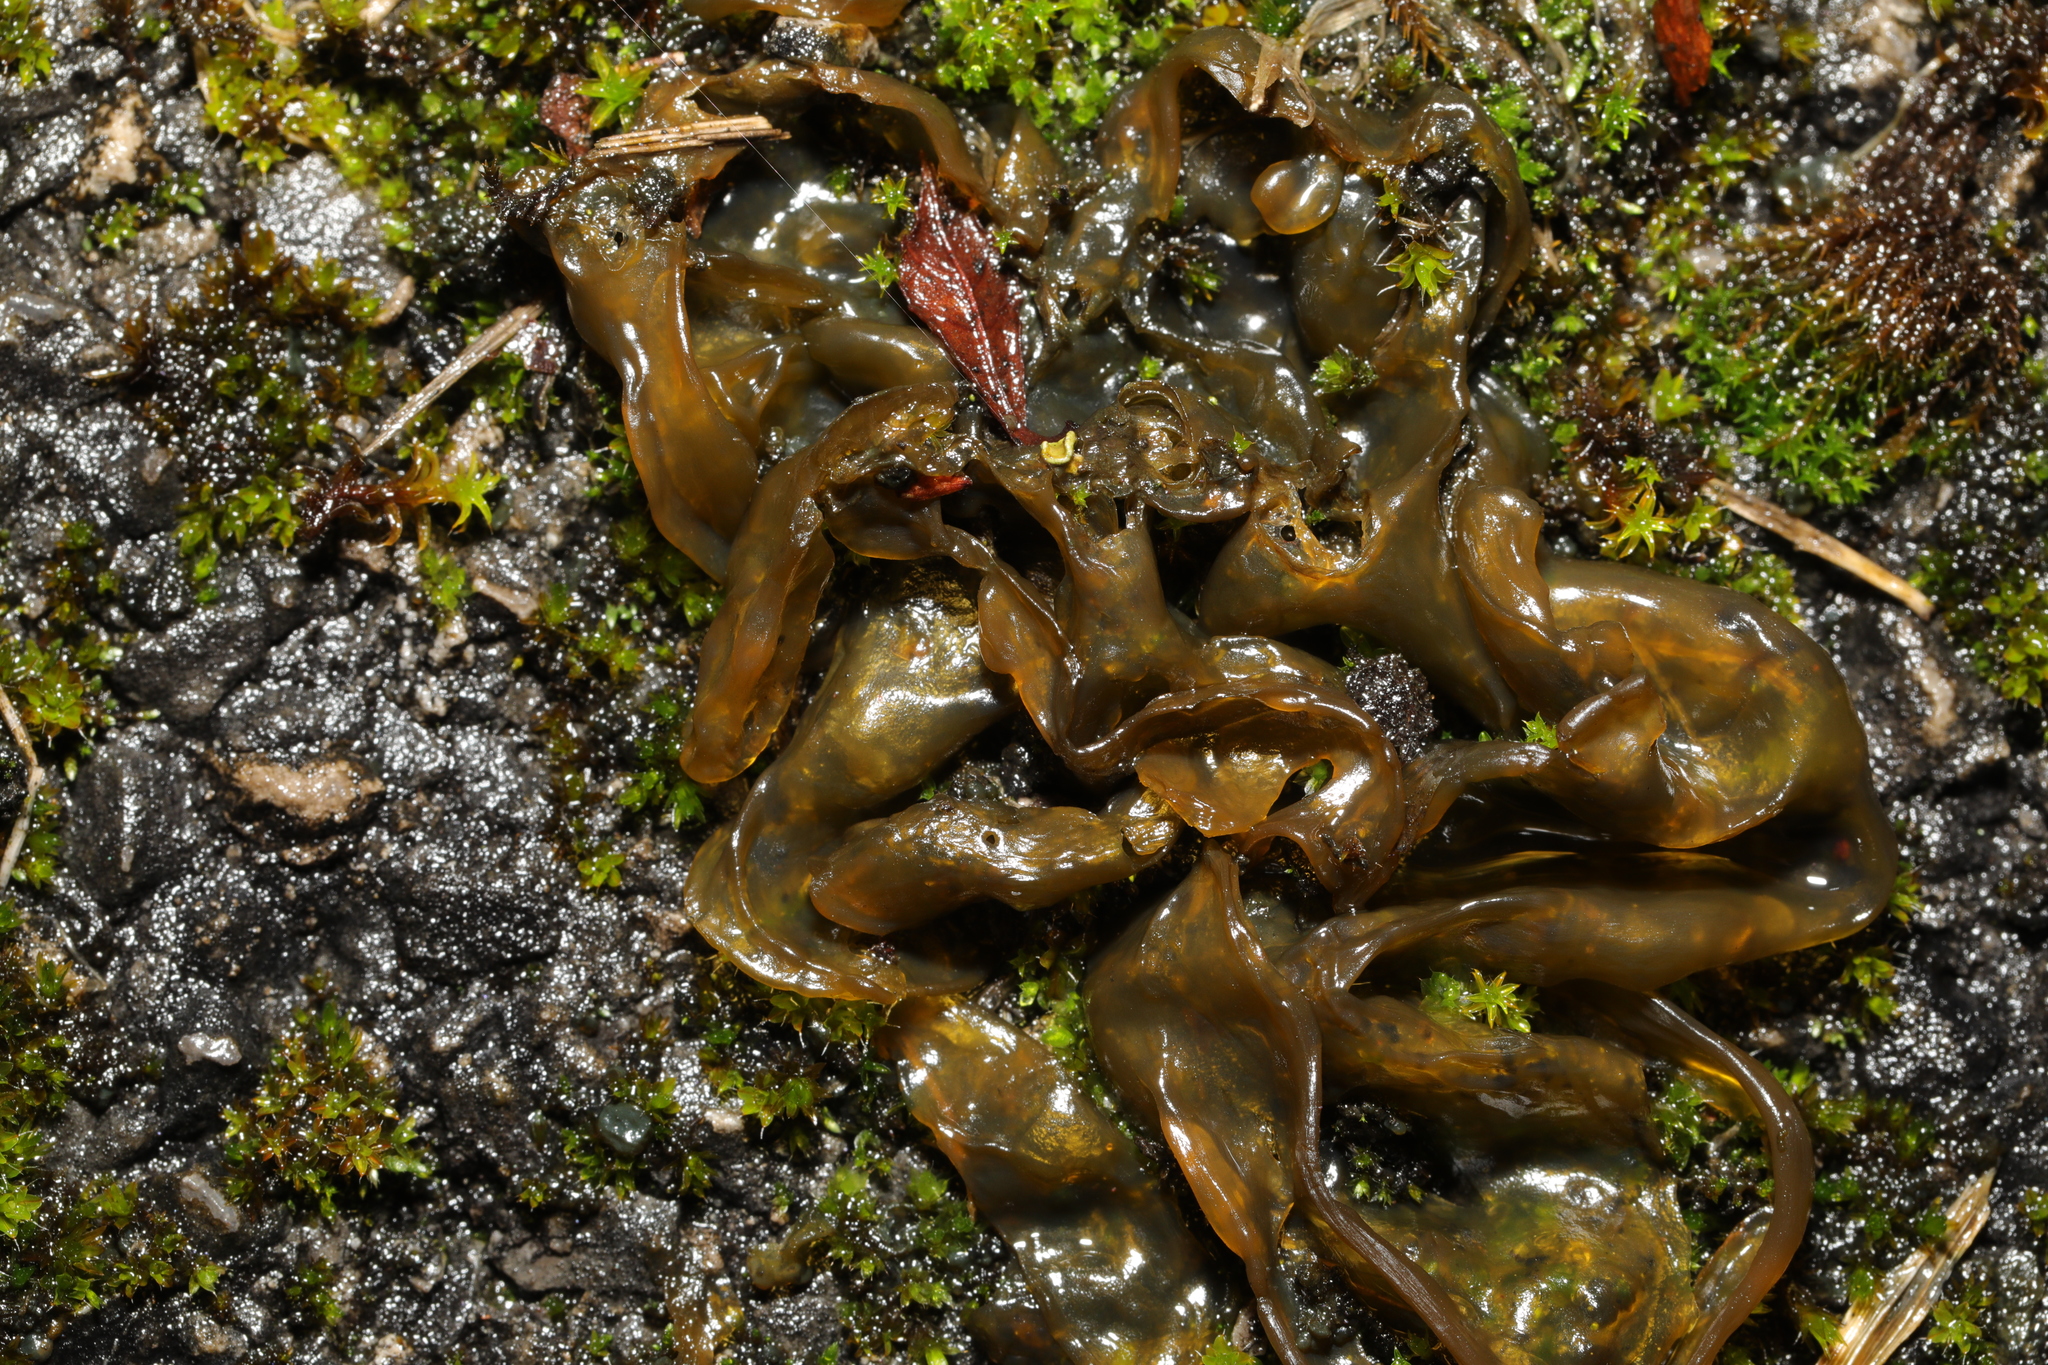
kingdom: Bacteria
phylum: Cyanobacteria
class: Cyanobacteriia
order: Cyanobacteriales
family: Nostocaceae
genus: Nostoc
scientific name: Nostoc commune
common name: Star jelly
